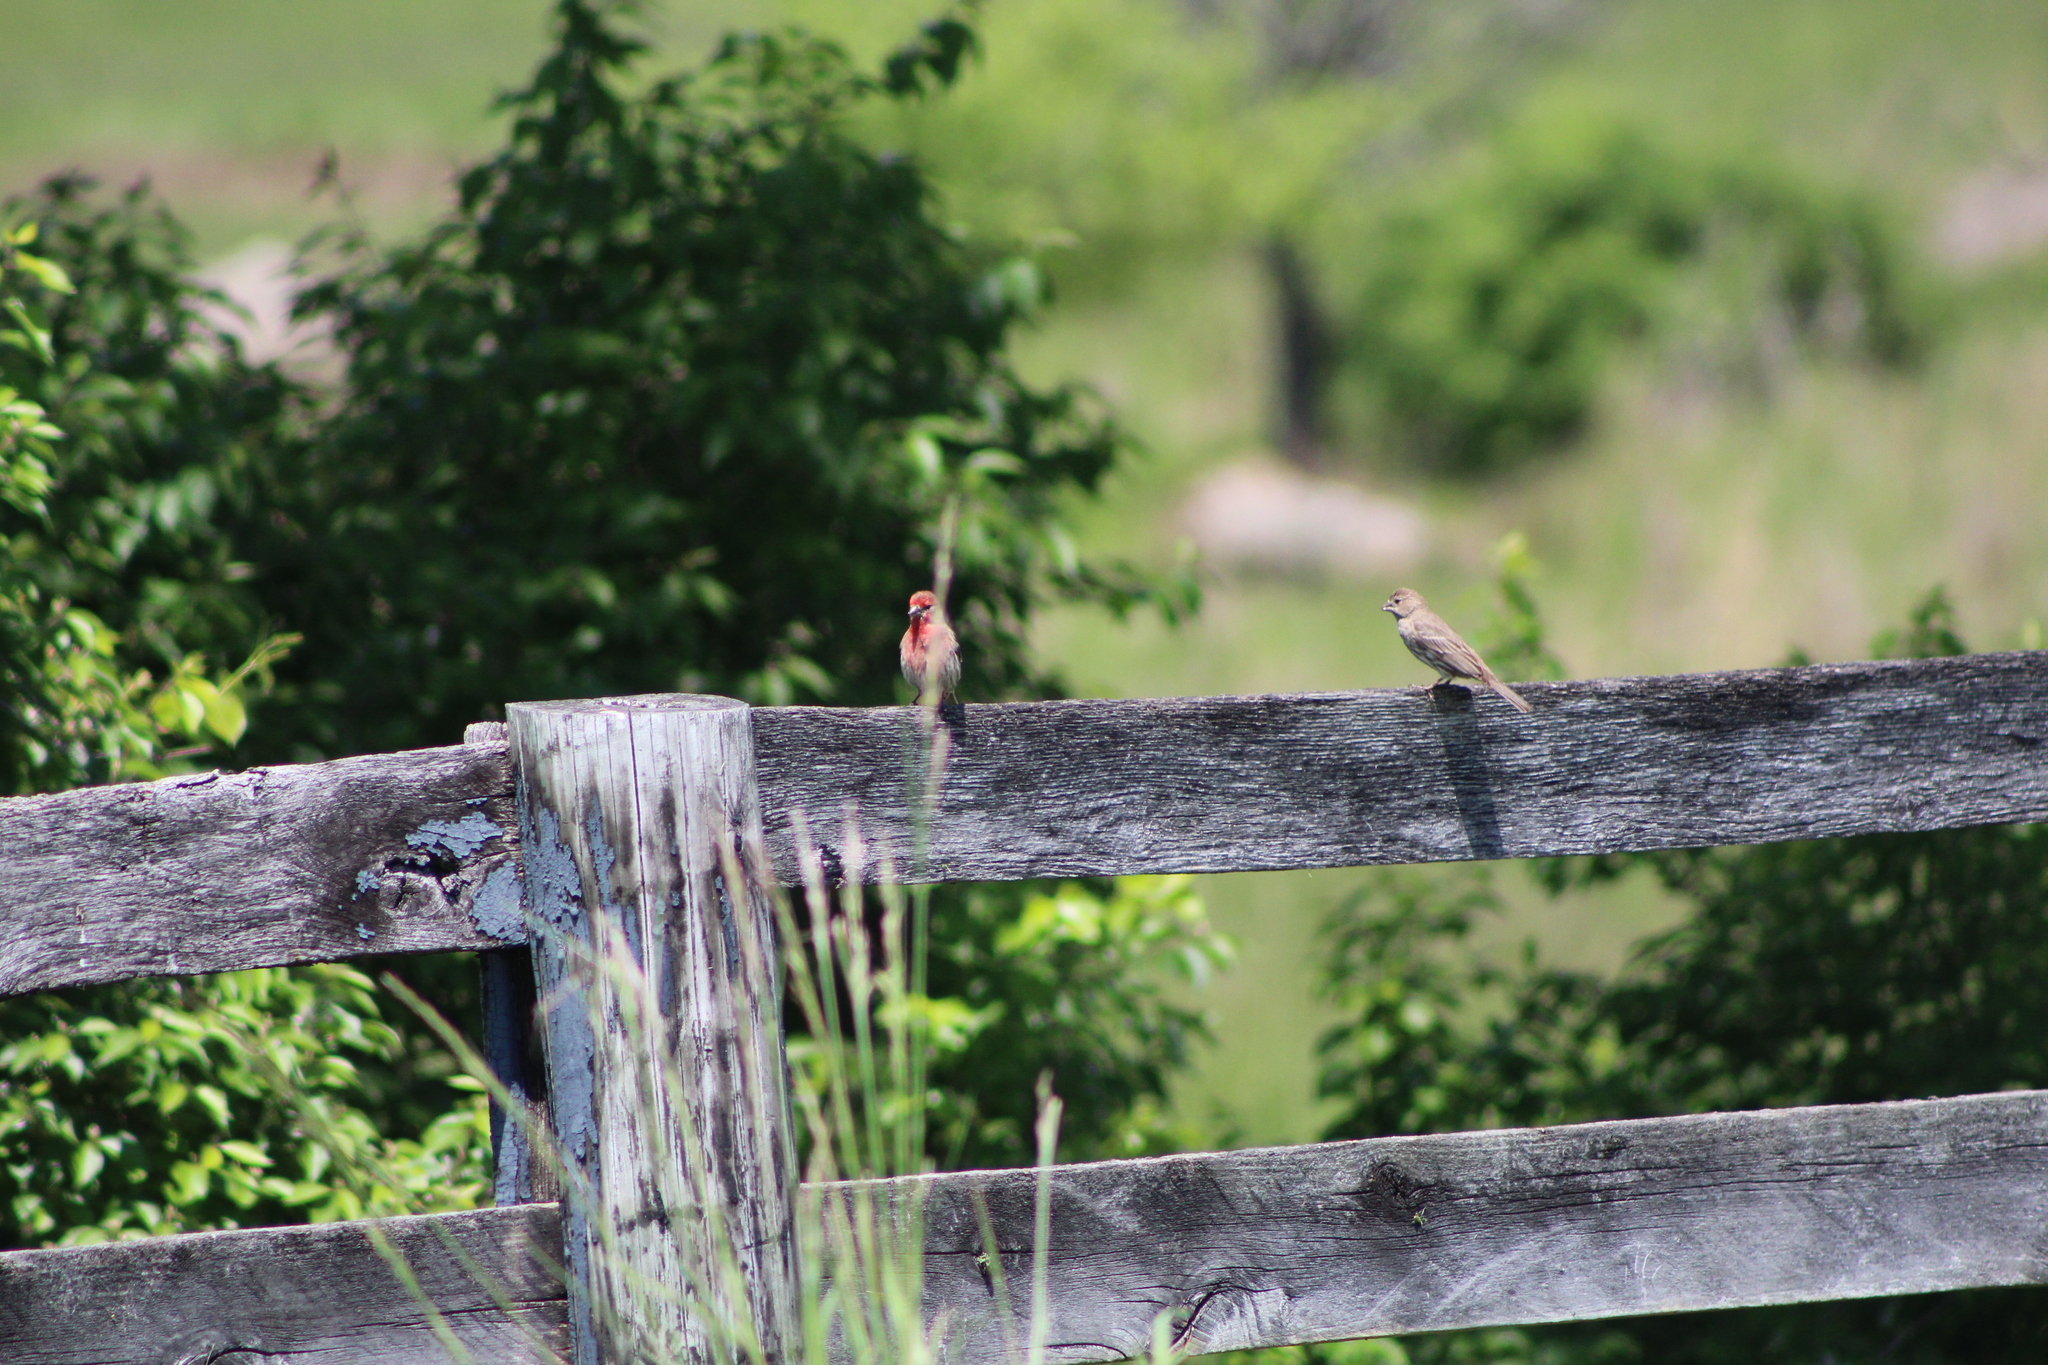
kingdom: Animalia
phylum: Chordata
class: Aves
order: Passeriformes
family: Fringillidae
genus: Haemorhous
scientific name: Haemorhous mexicanus
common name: House finch
